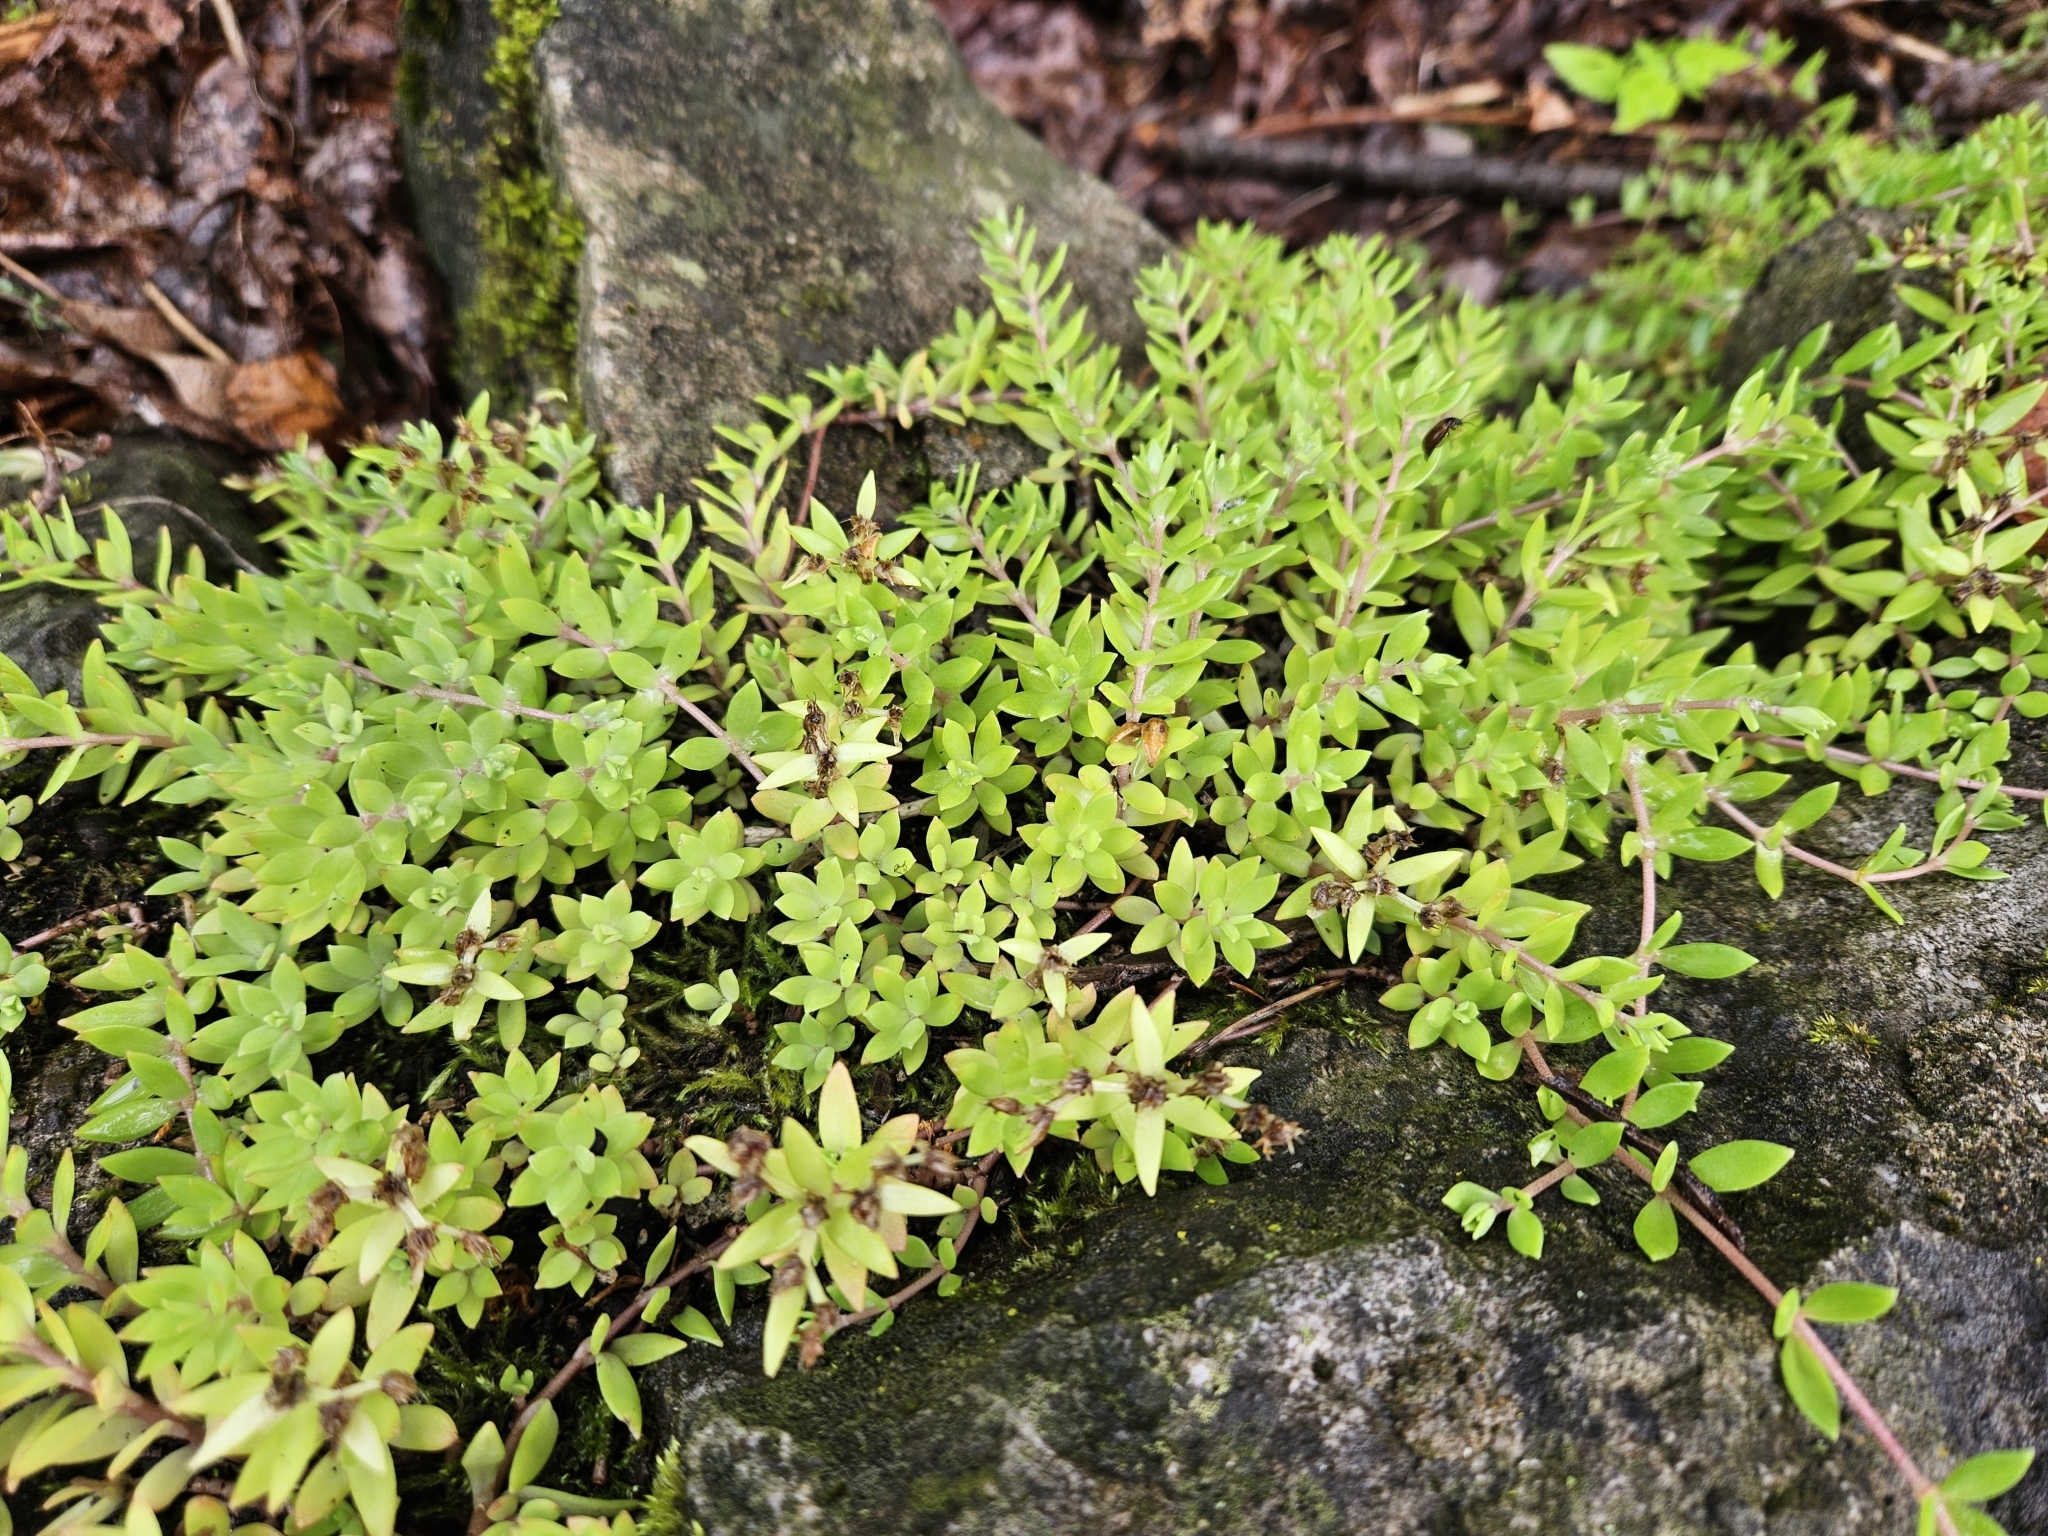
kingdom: Plantae
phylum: Tracheophyta
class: Magnoliopsida
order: Saxifragales
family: Crassulaceae
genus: Sedum
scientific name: Sedum sarmentosum
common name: Stringy stonecrop
